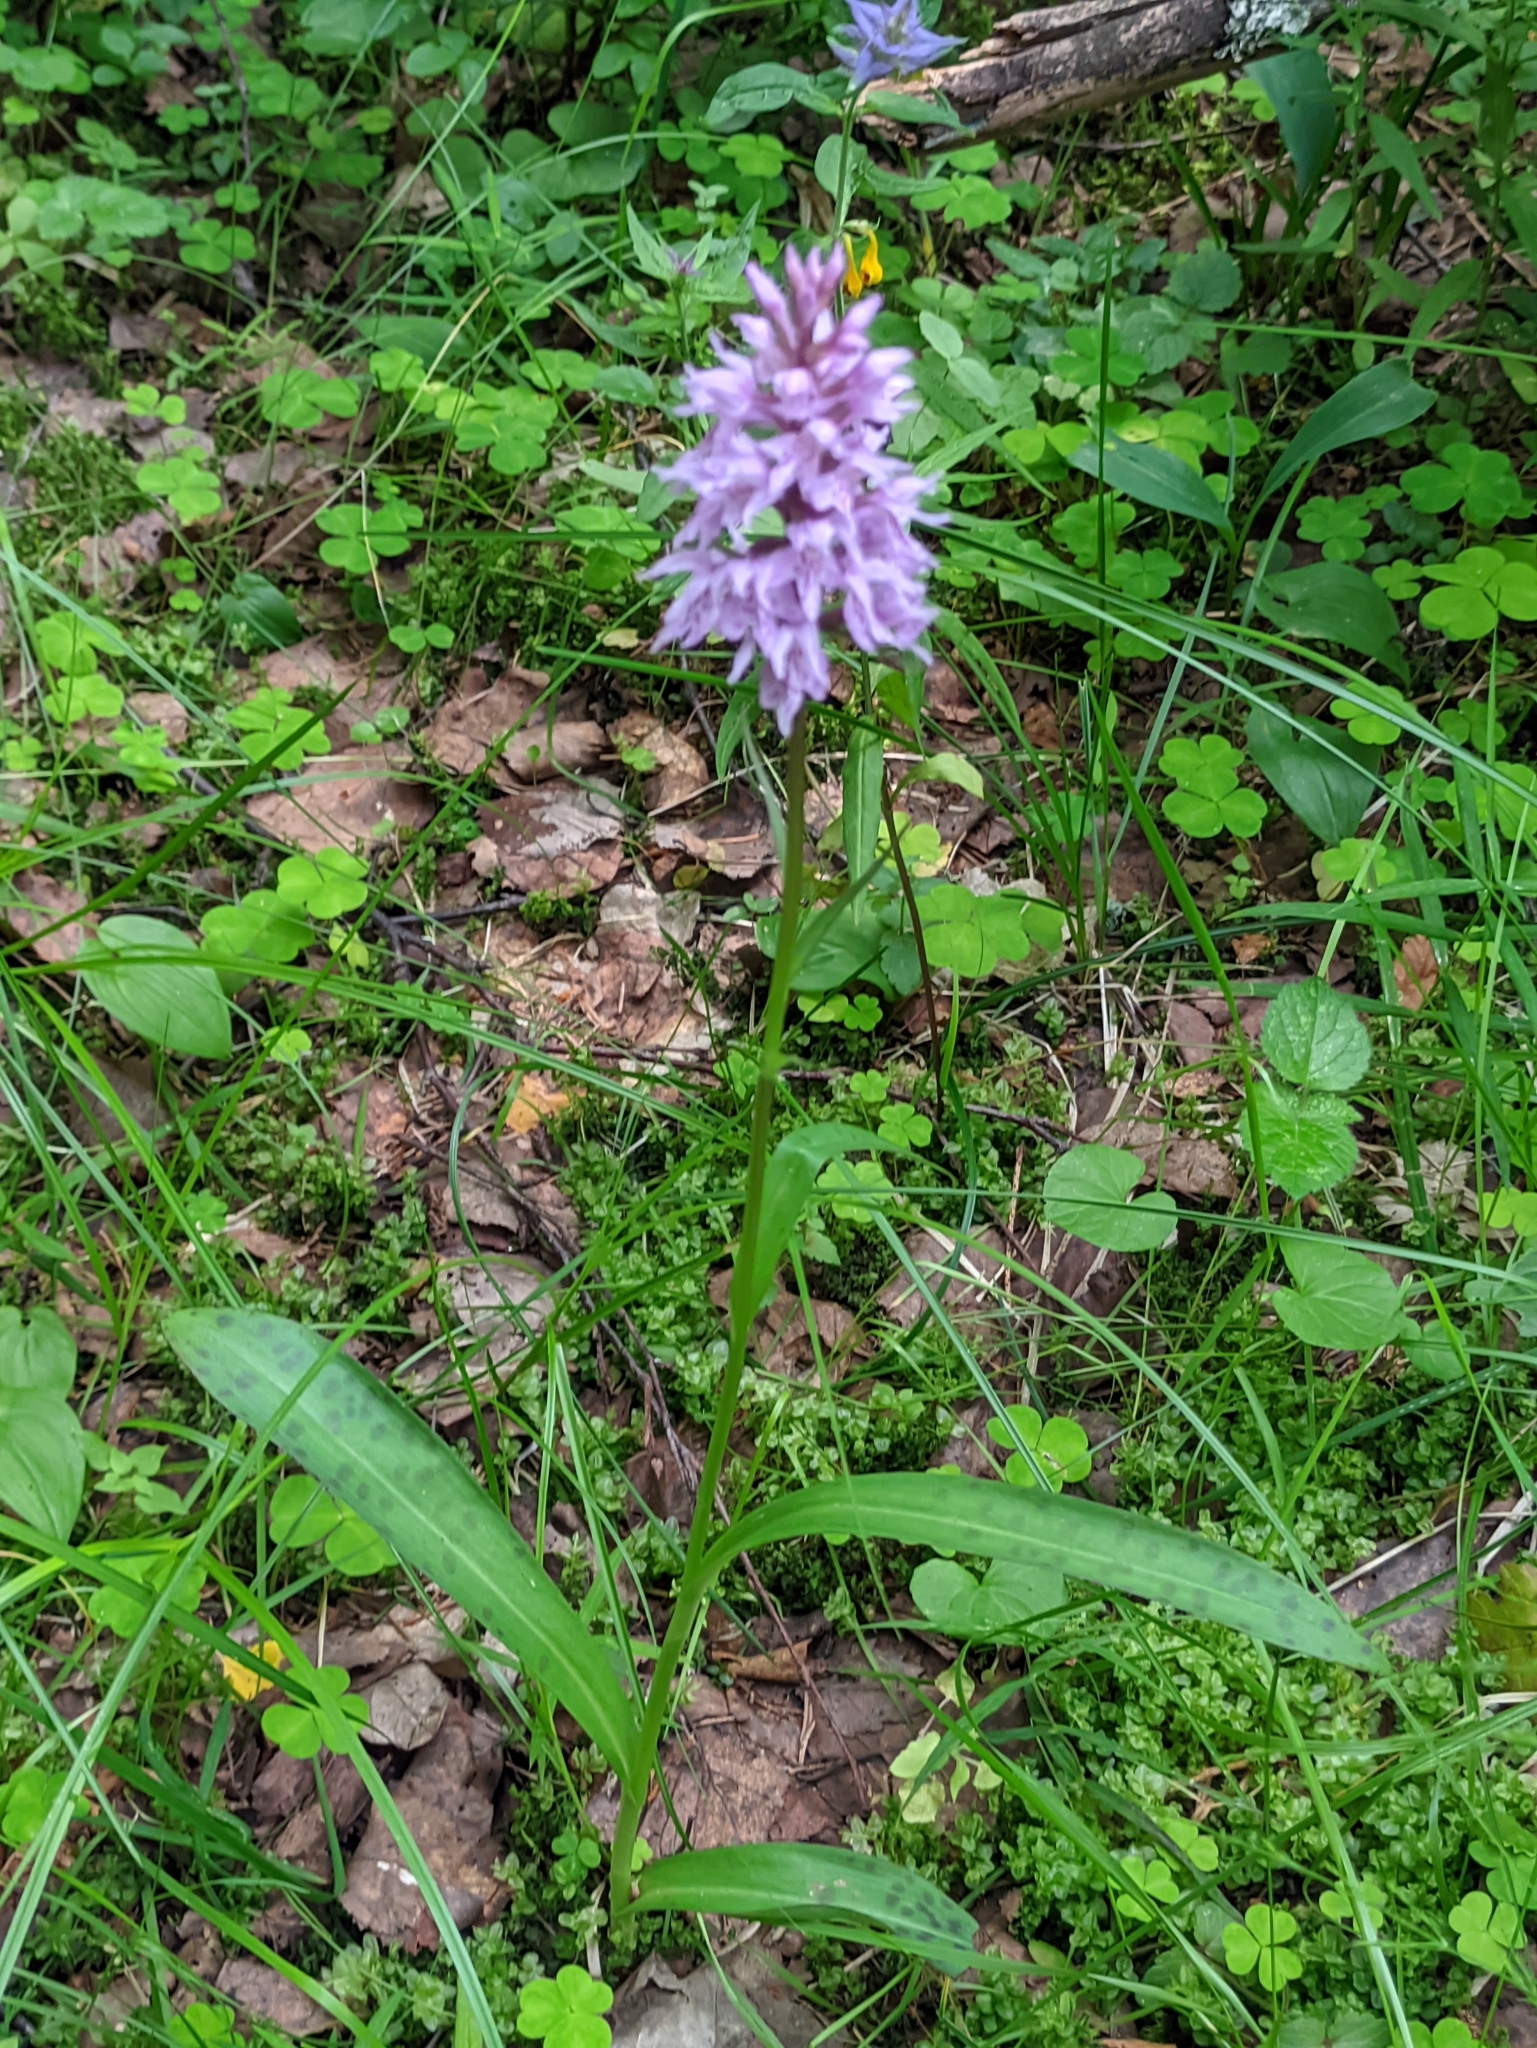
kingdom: Plantae
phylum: Tracheophyta
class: Liliopsida
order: Asparagales
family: Orchidaceae
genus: Dactylorhiza
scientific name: Dactylorhiza maculata
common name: Heath spotted-orchid
